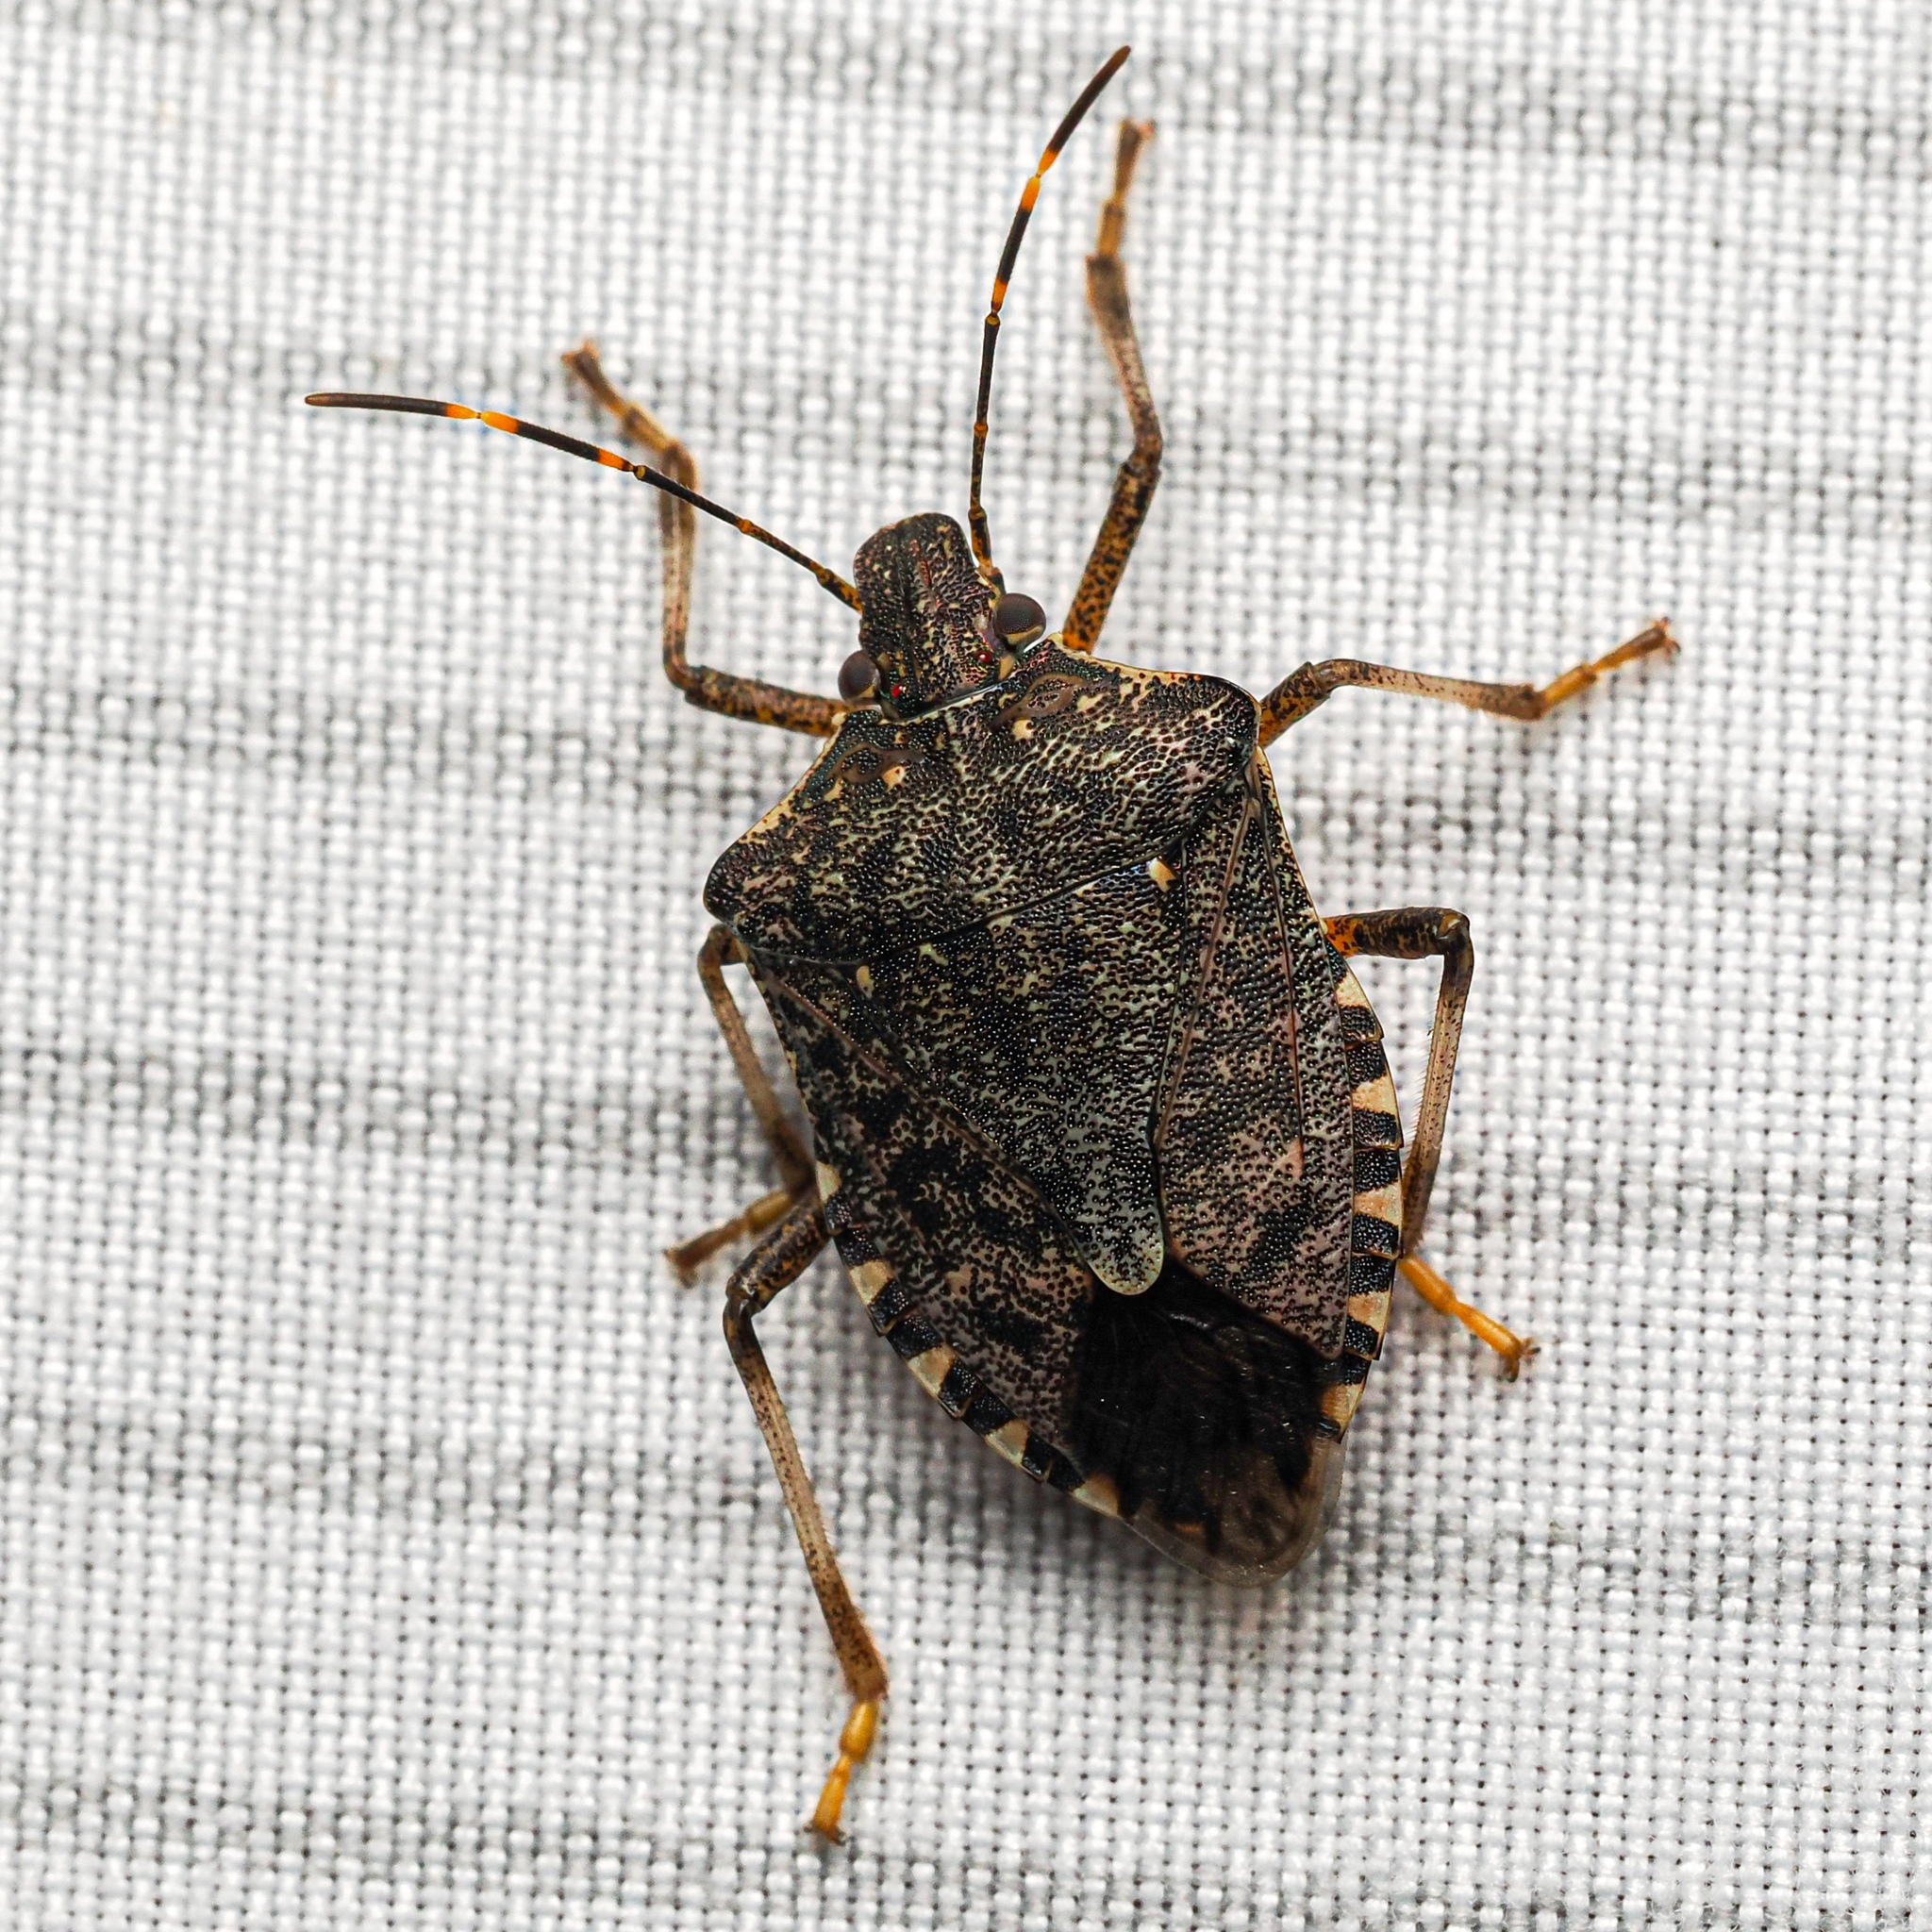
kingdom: Animalia
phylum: Arthropoda
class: Insecta
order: Hemiptera
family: Pentatomidae
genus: Halyomorpha
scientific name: Halyomorpha halys
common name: Brown marmorated stink bug
